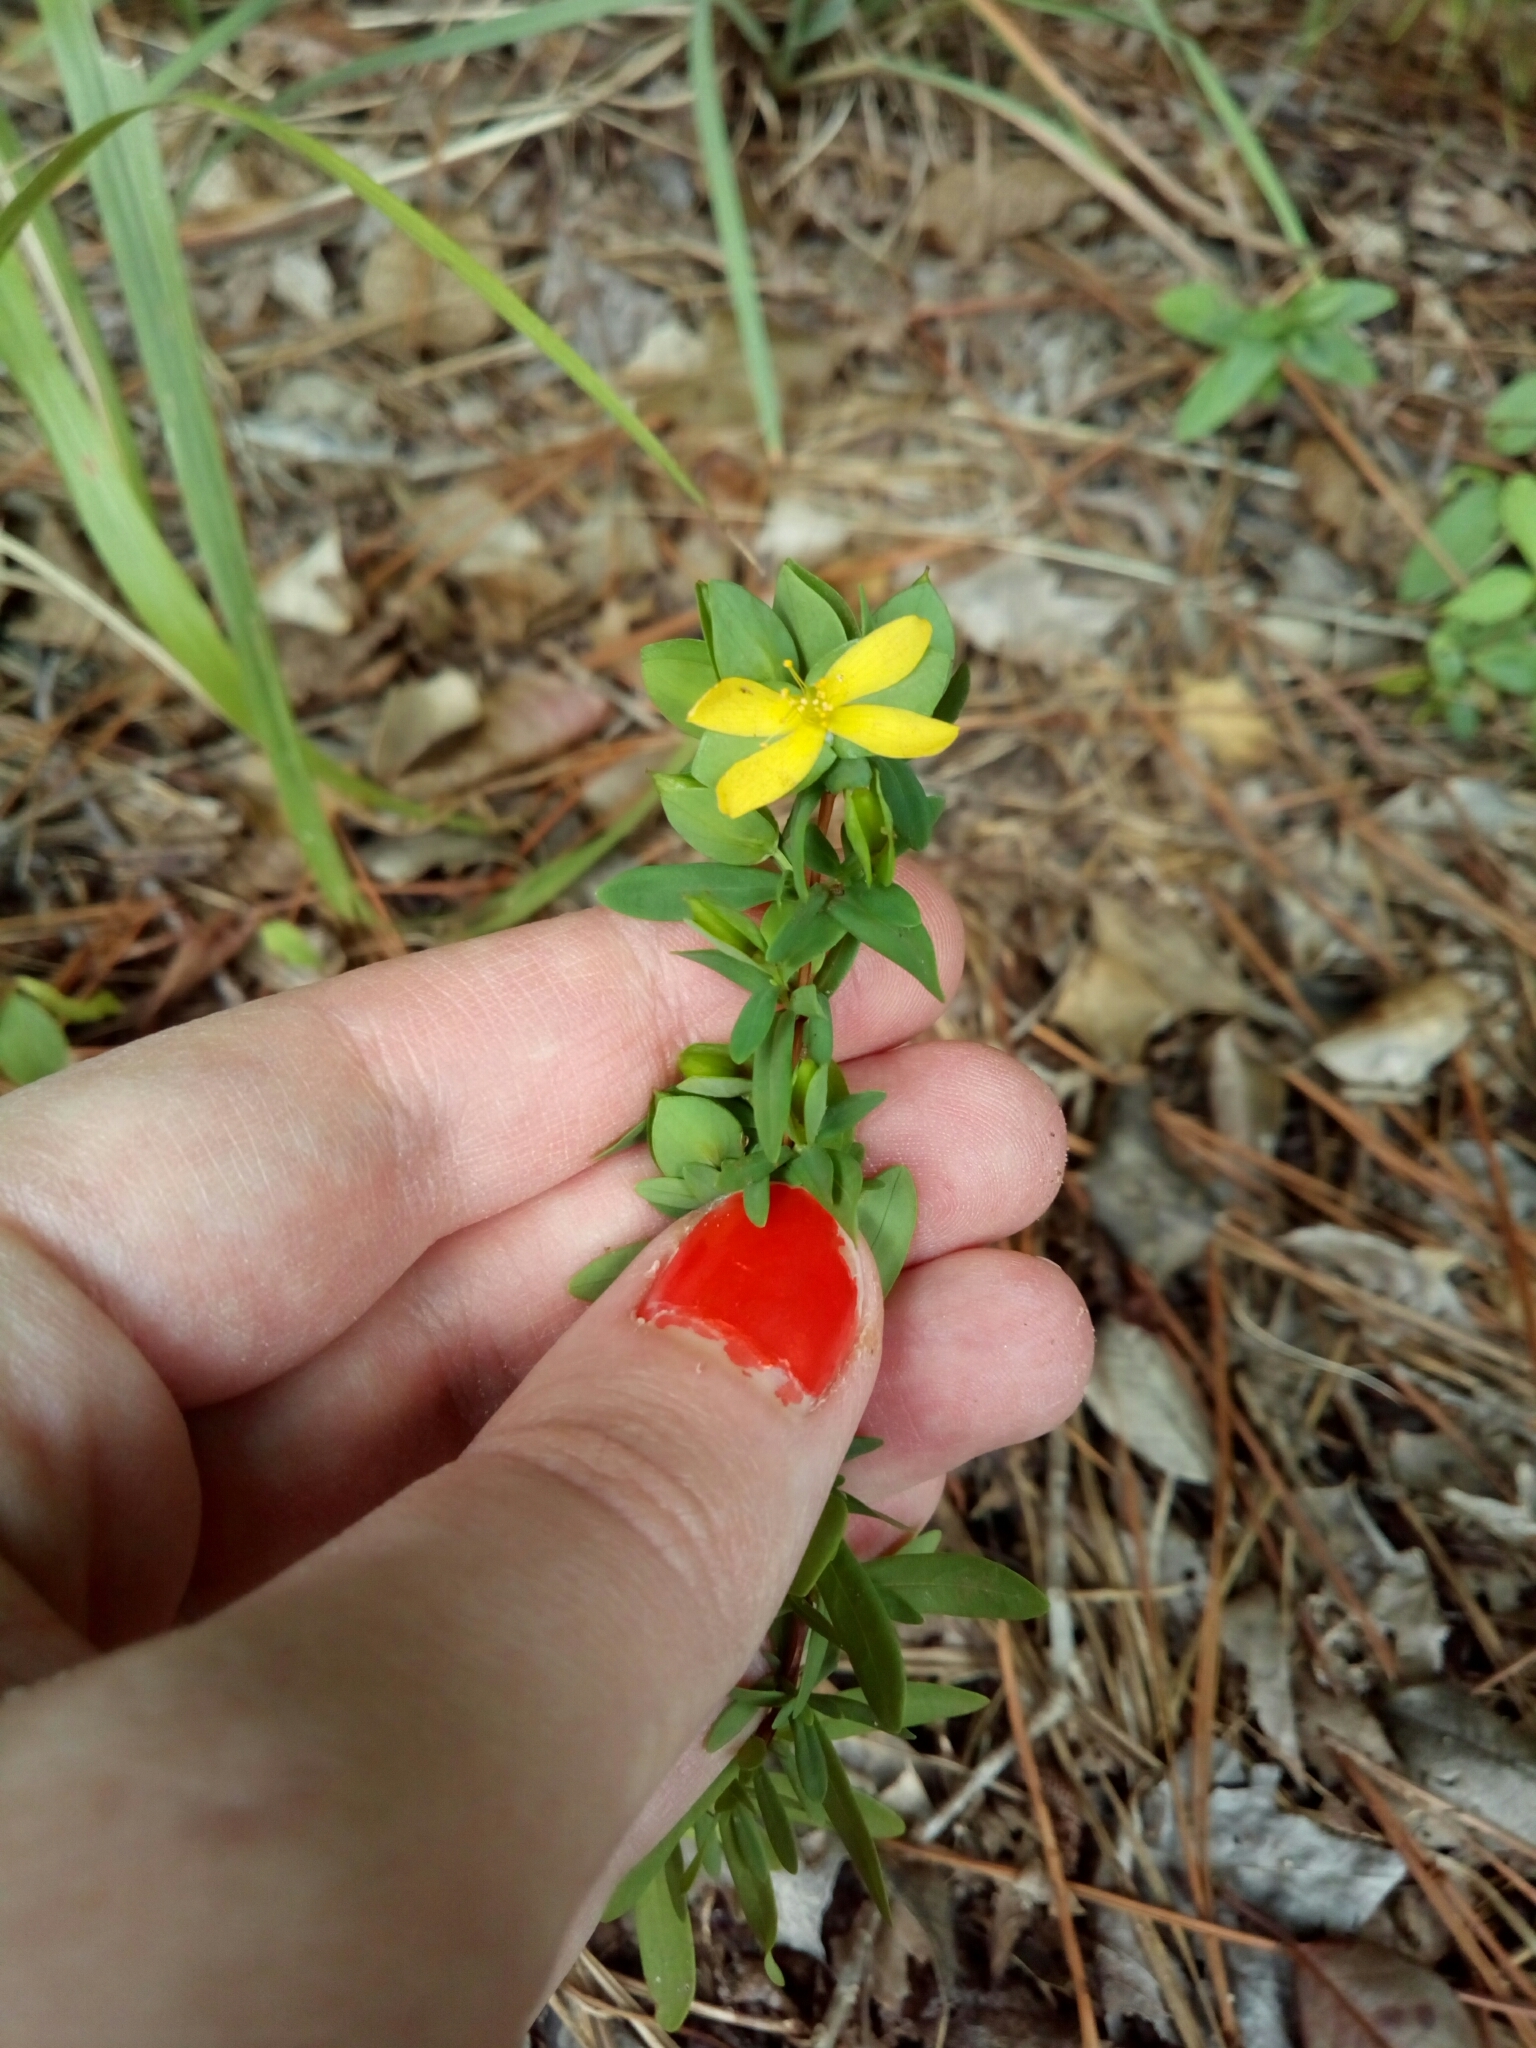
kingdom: Plantae
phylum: Tracheophyta
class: Magnoliopsida
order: Malpighiales
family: Hypericaceae
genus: Hypericum
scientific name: Hypericum hypericoides
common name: St. andrew's cross
